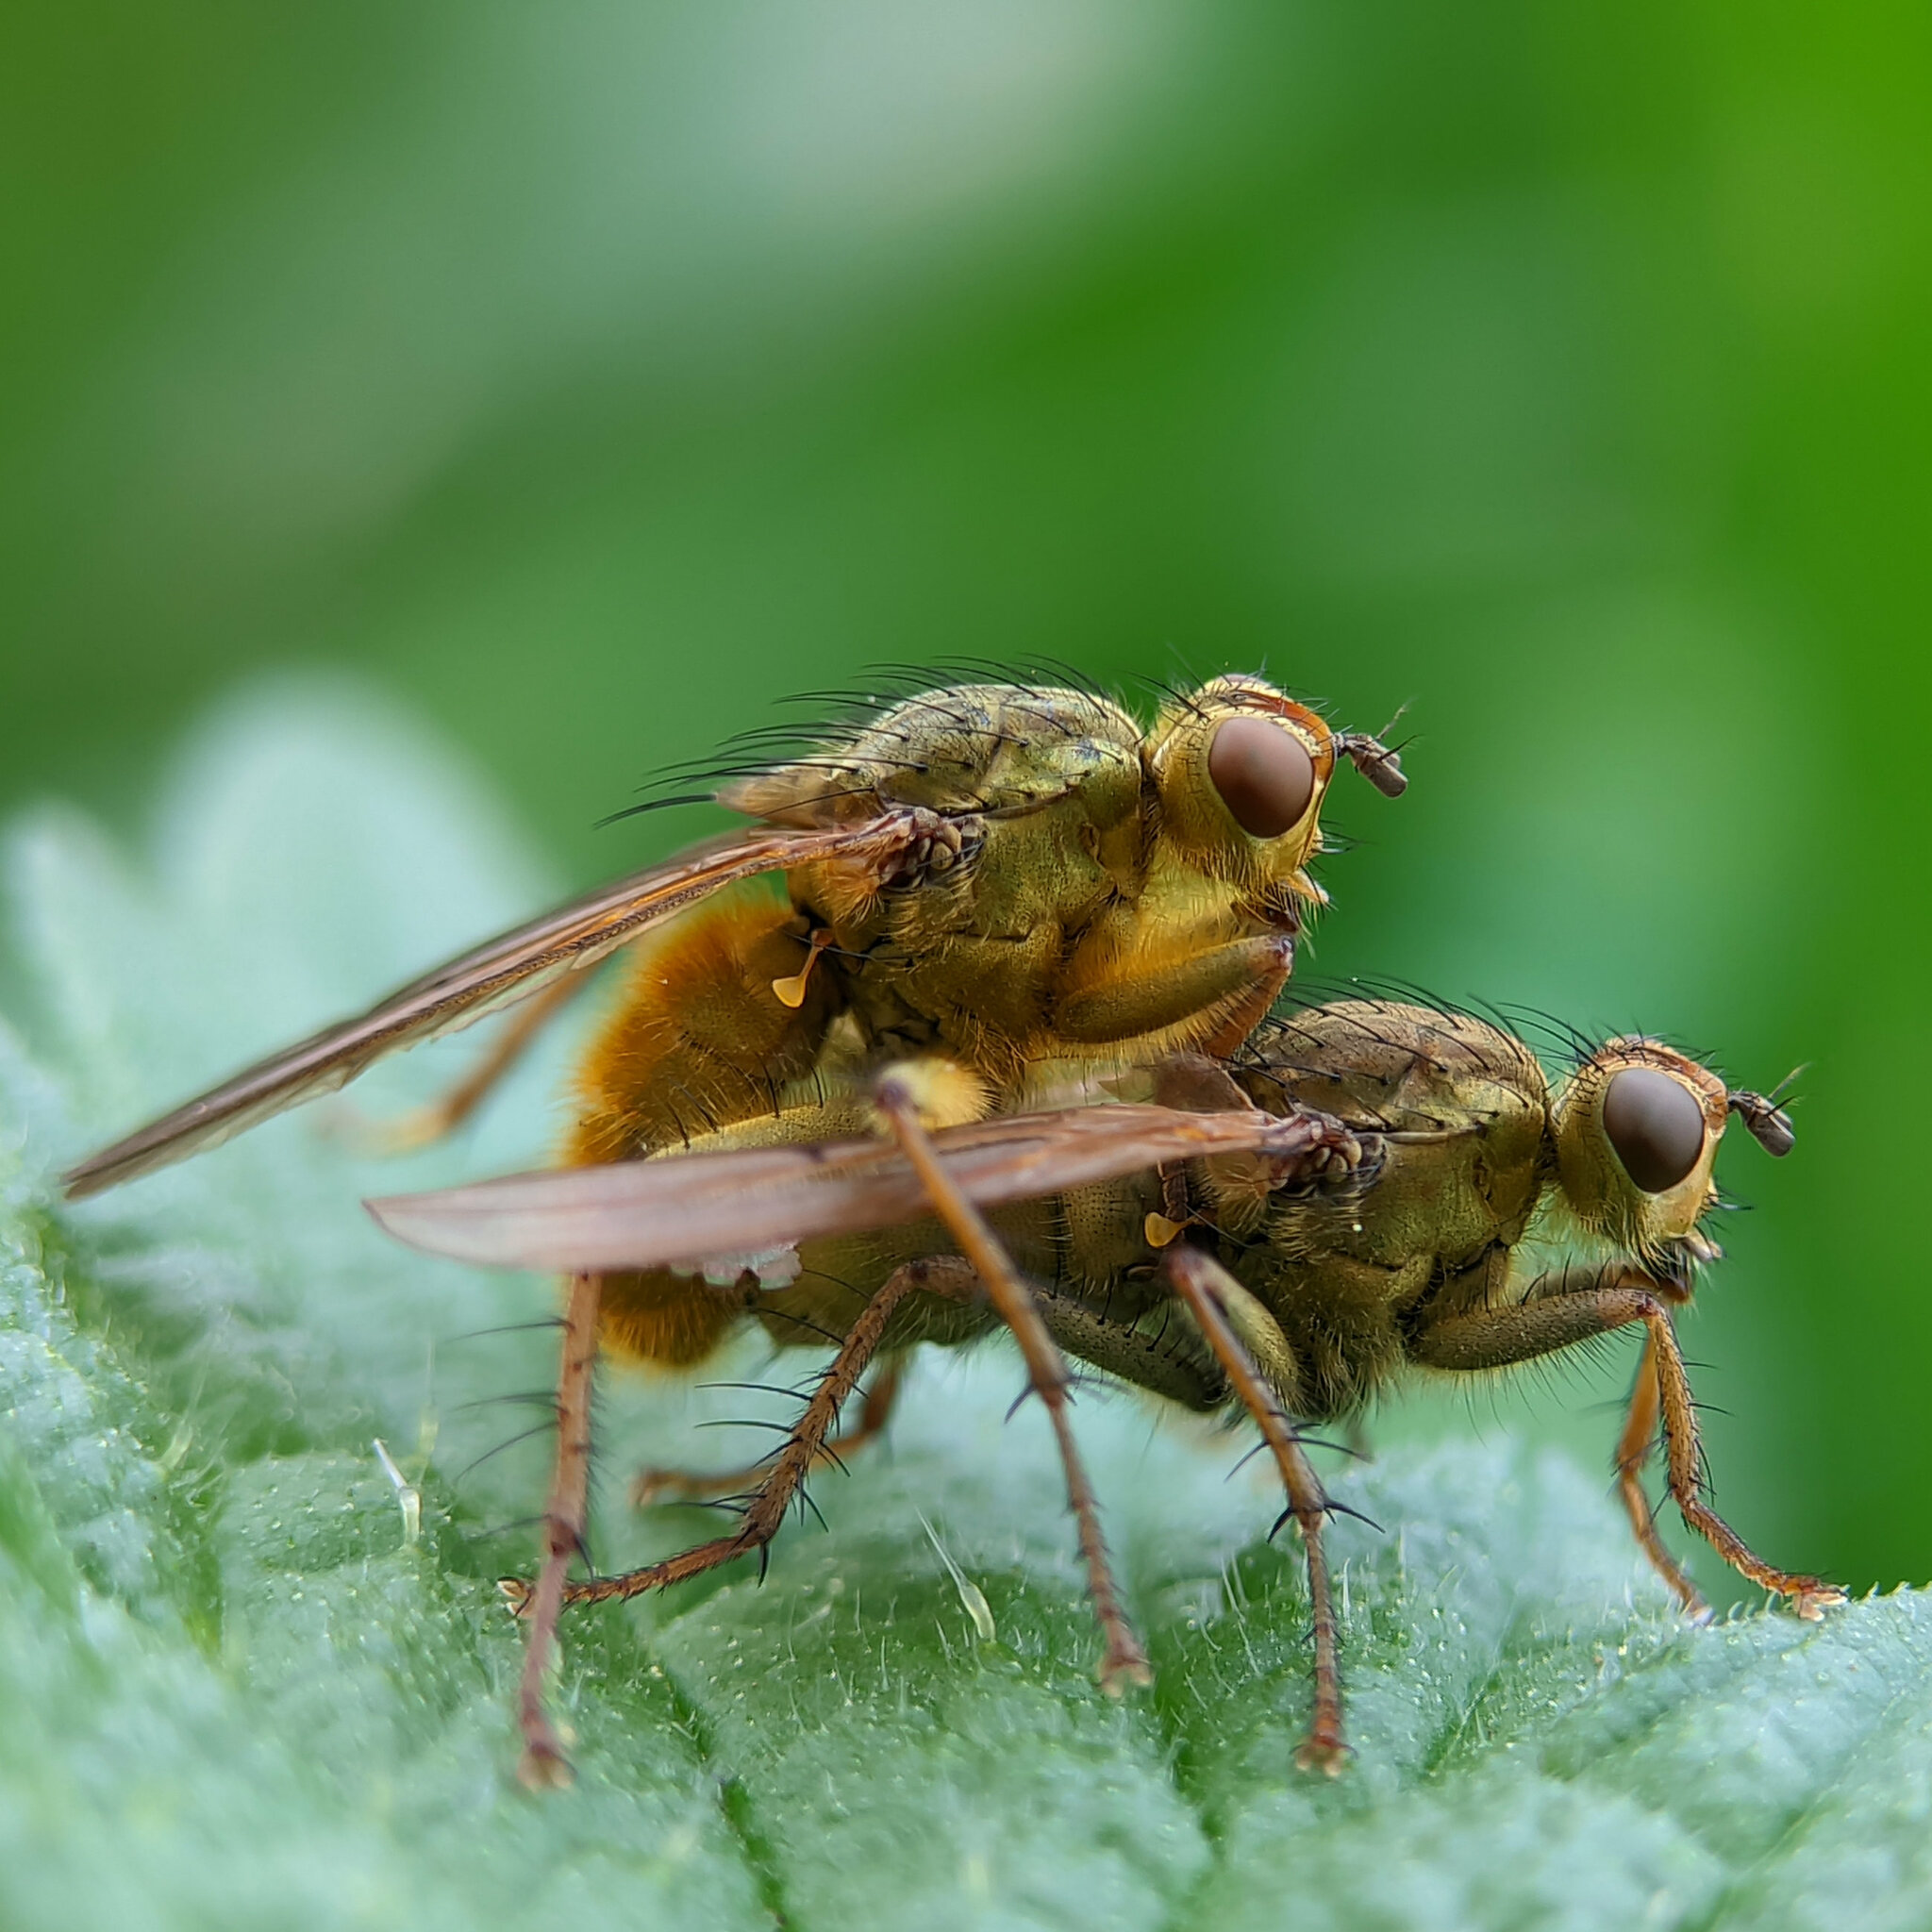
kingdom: Animalia
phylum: Arthropoda
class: Insecta
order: Diptera
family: Scathophagidae
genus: Scathophaga
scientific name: Scathophaga stercoraria
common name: Yellow dung fly
